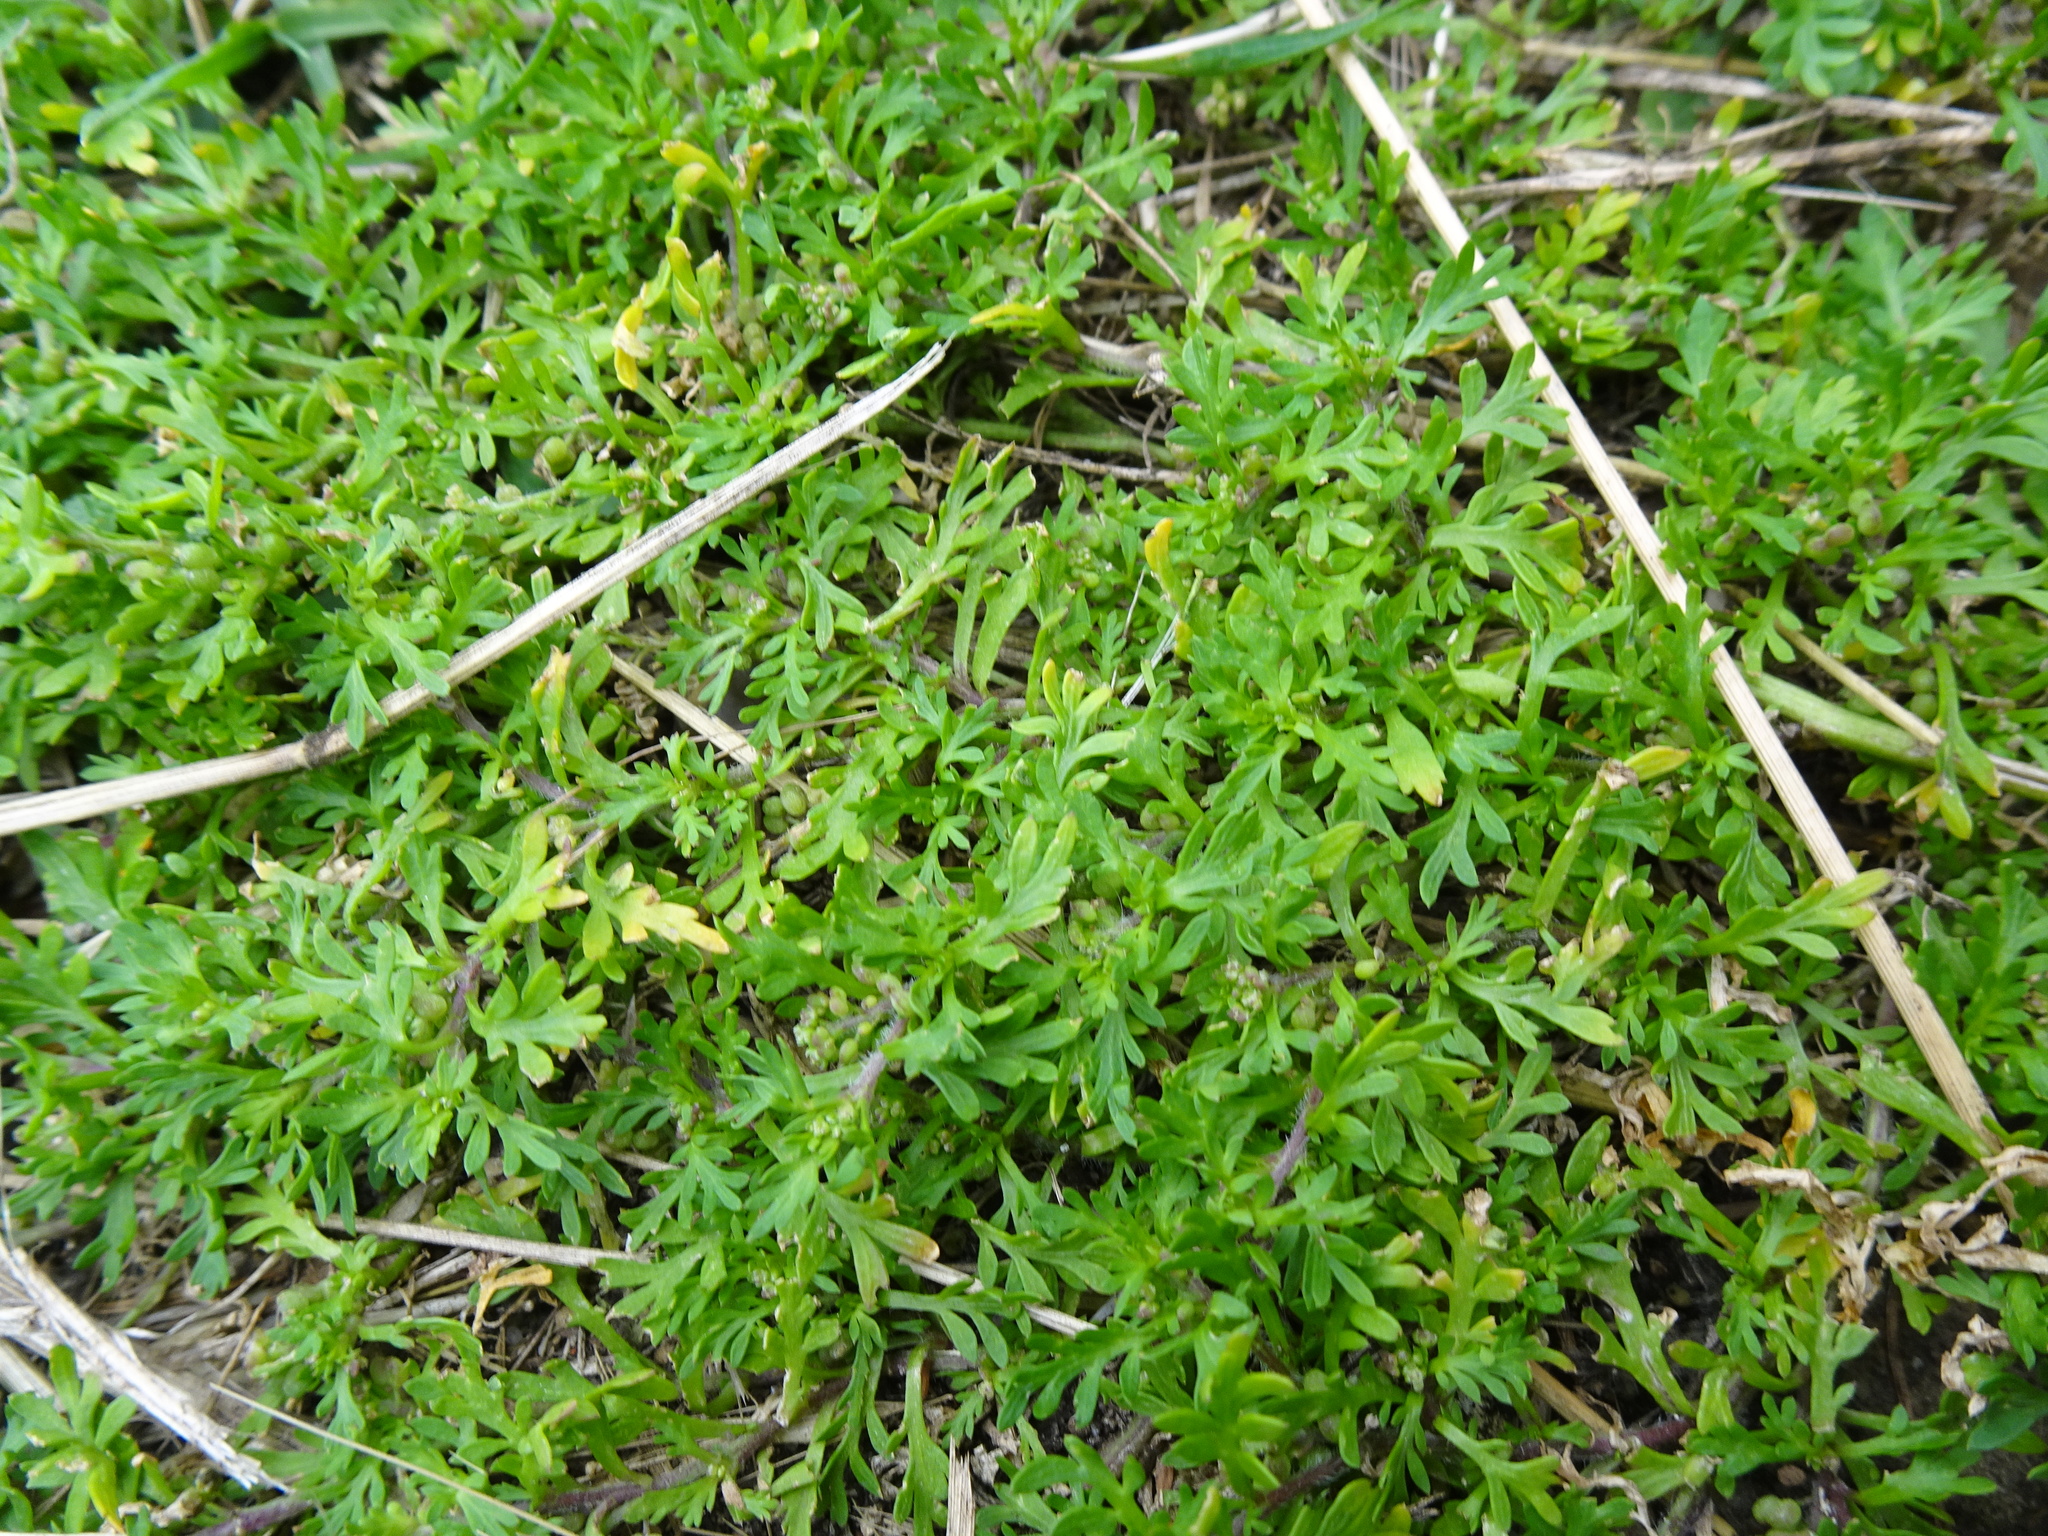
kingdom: Plantae
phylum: Tracheophyta
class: Magnoliopsida
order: Brassicales
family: Brassicaceae
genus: Lepidium
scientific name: Lepidium didymum
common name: Lesser swinecress
